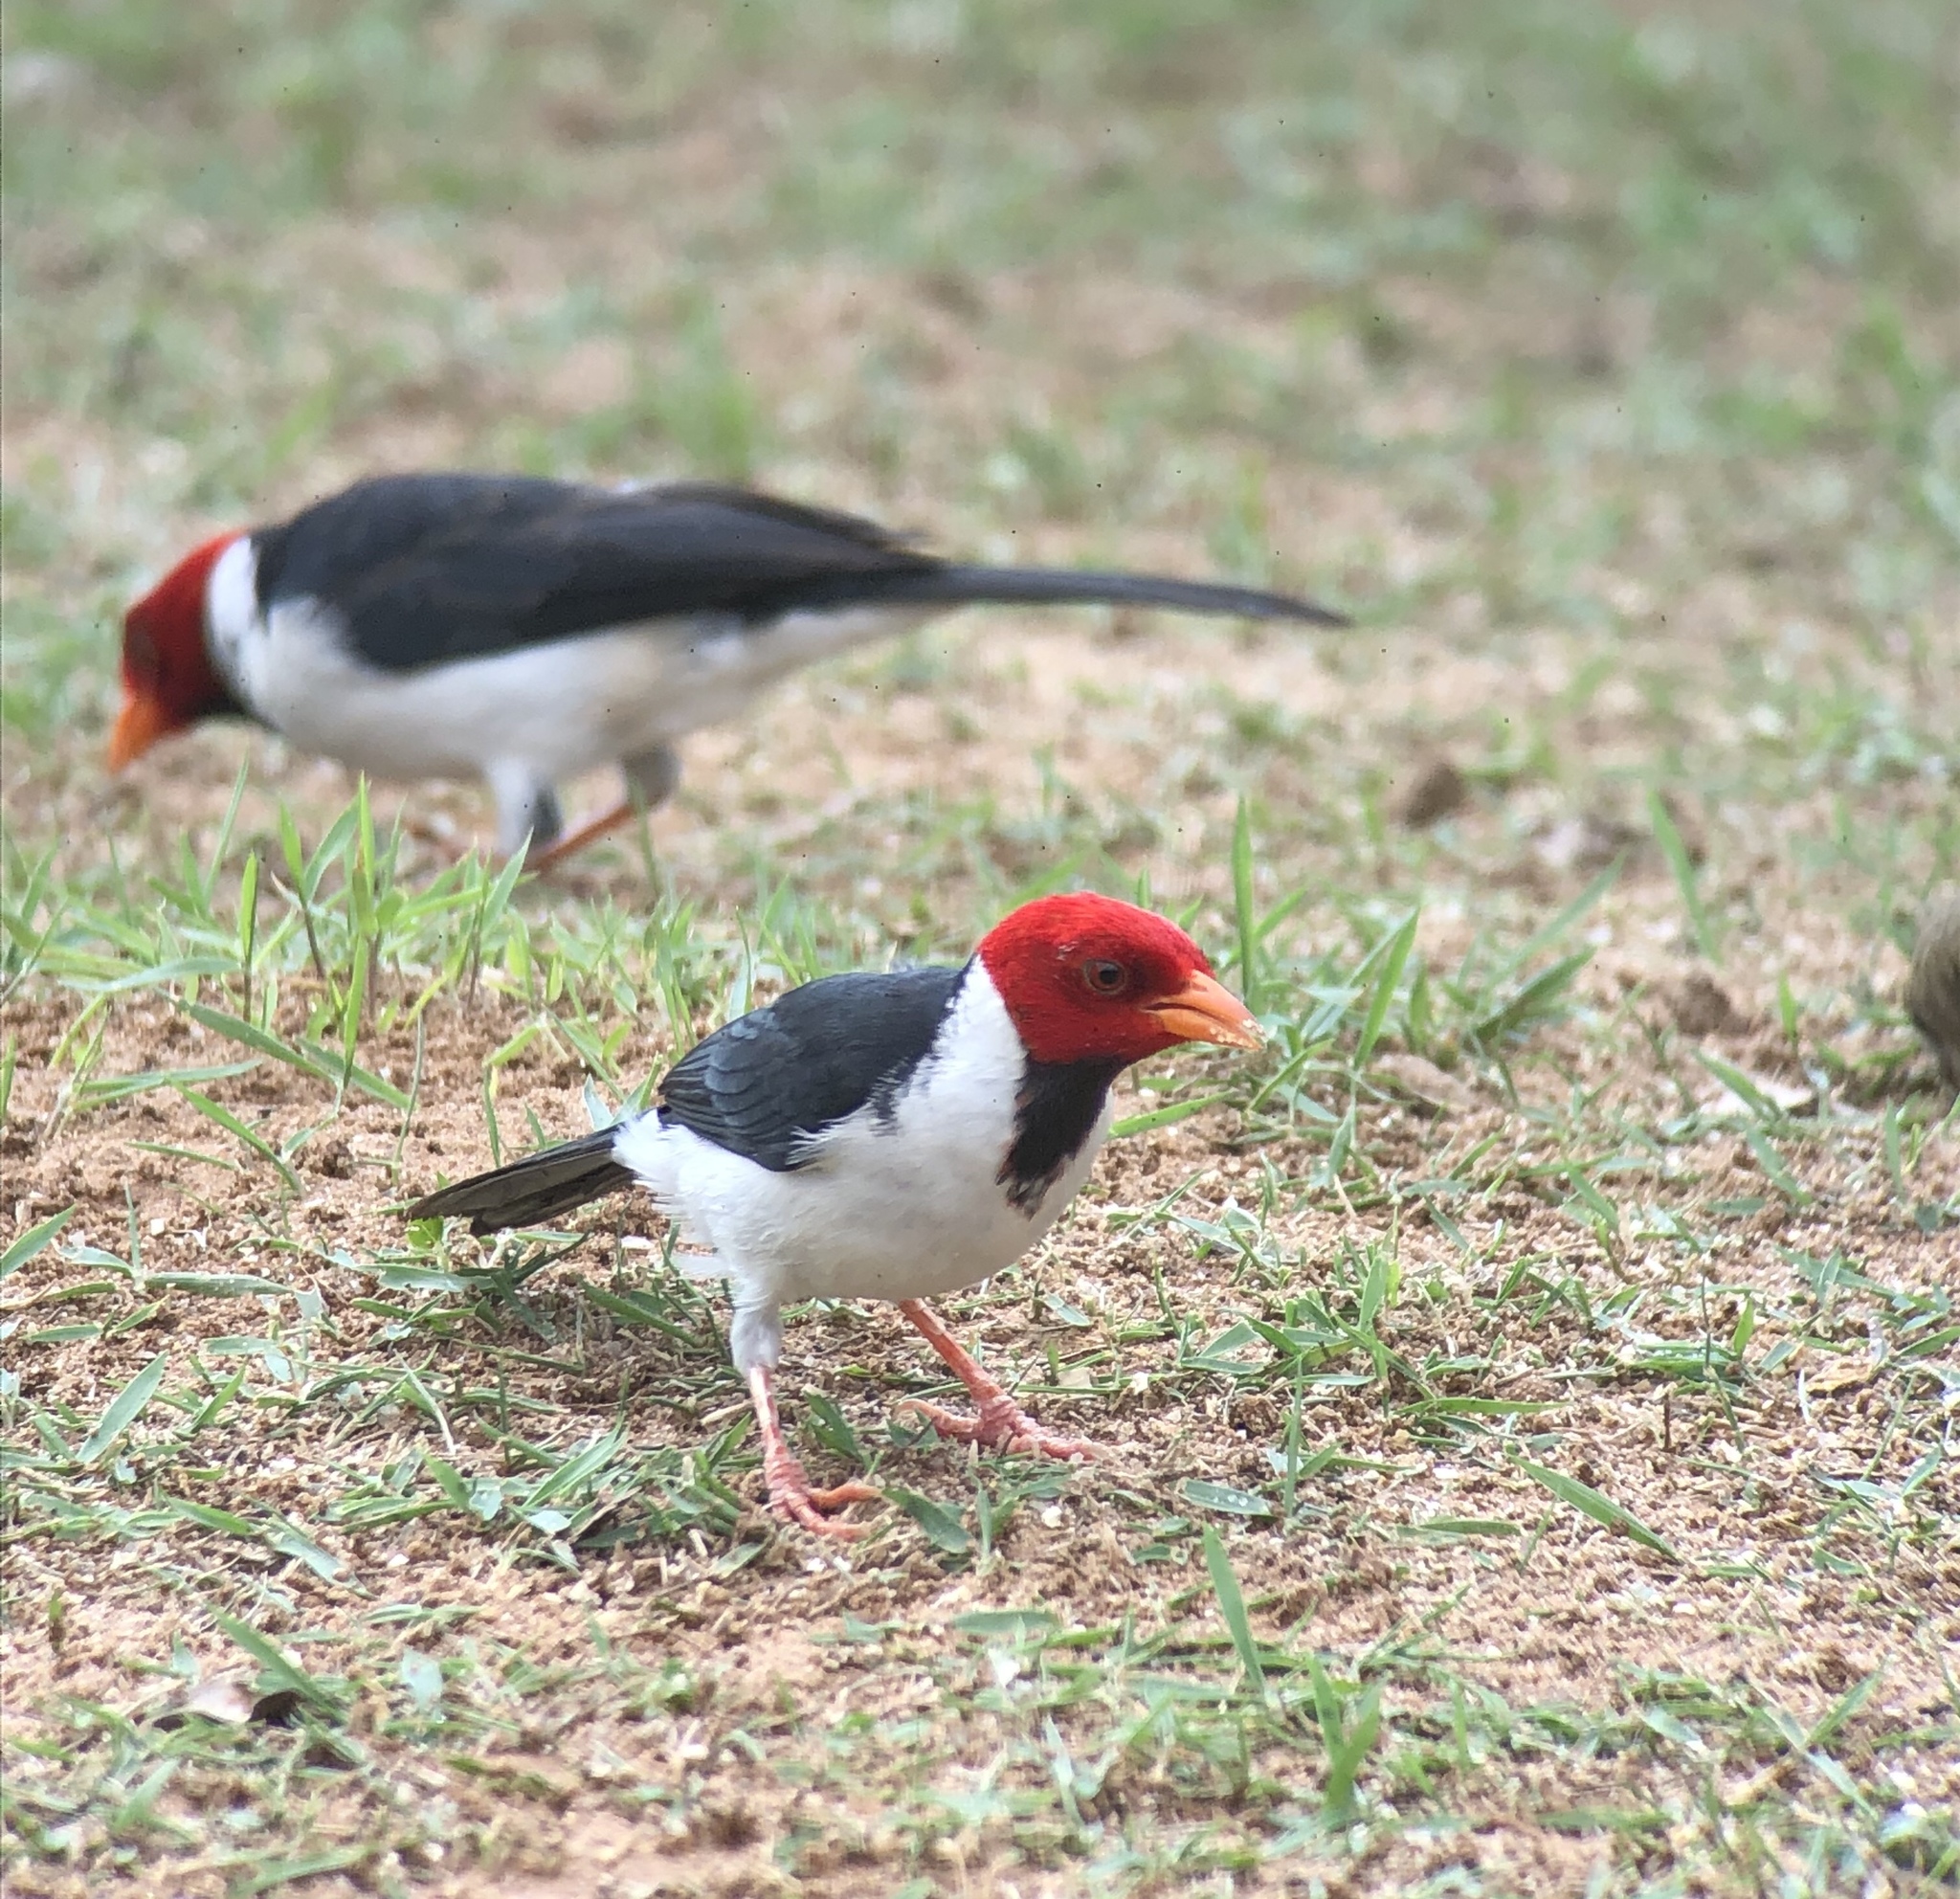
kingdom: Animalia
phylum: Chordata
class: Aves
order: Passeriformes
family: Thraupidae
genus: Paroaria
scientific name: Paroaria capitata
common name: Yellow-billed cardinal
